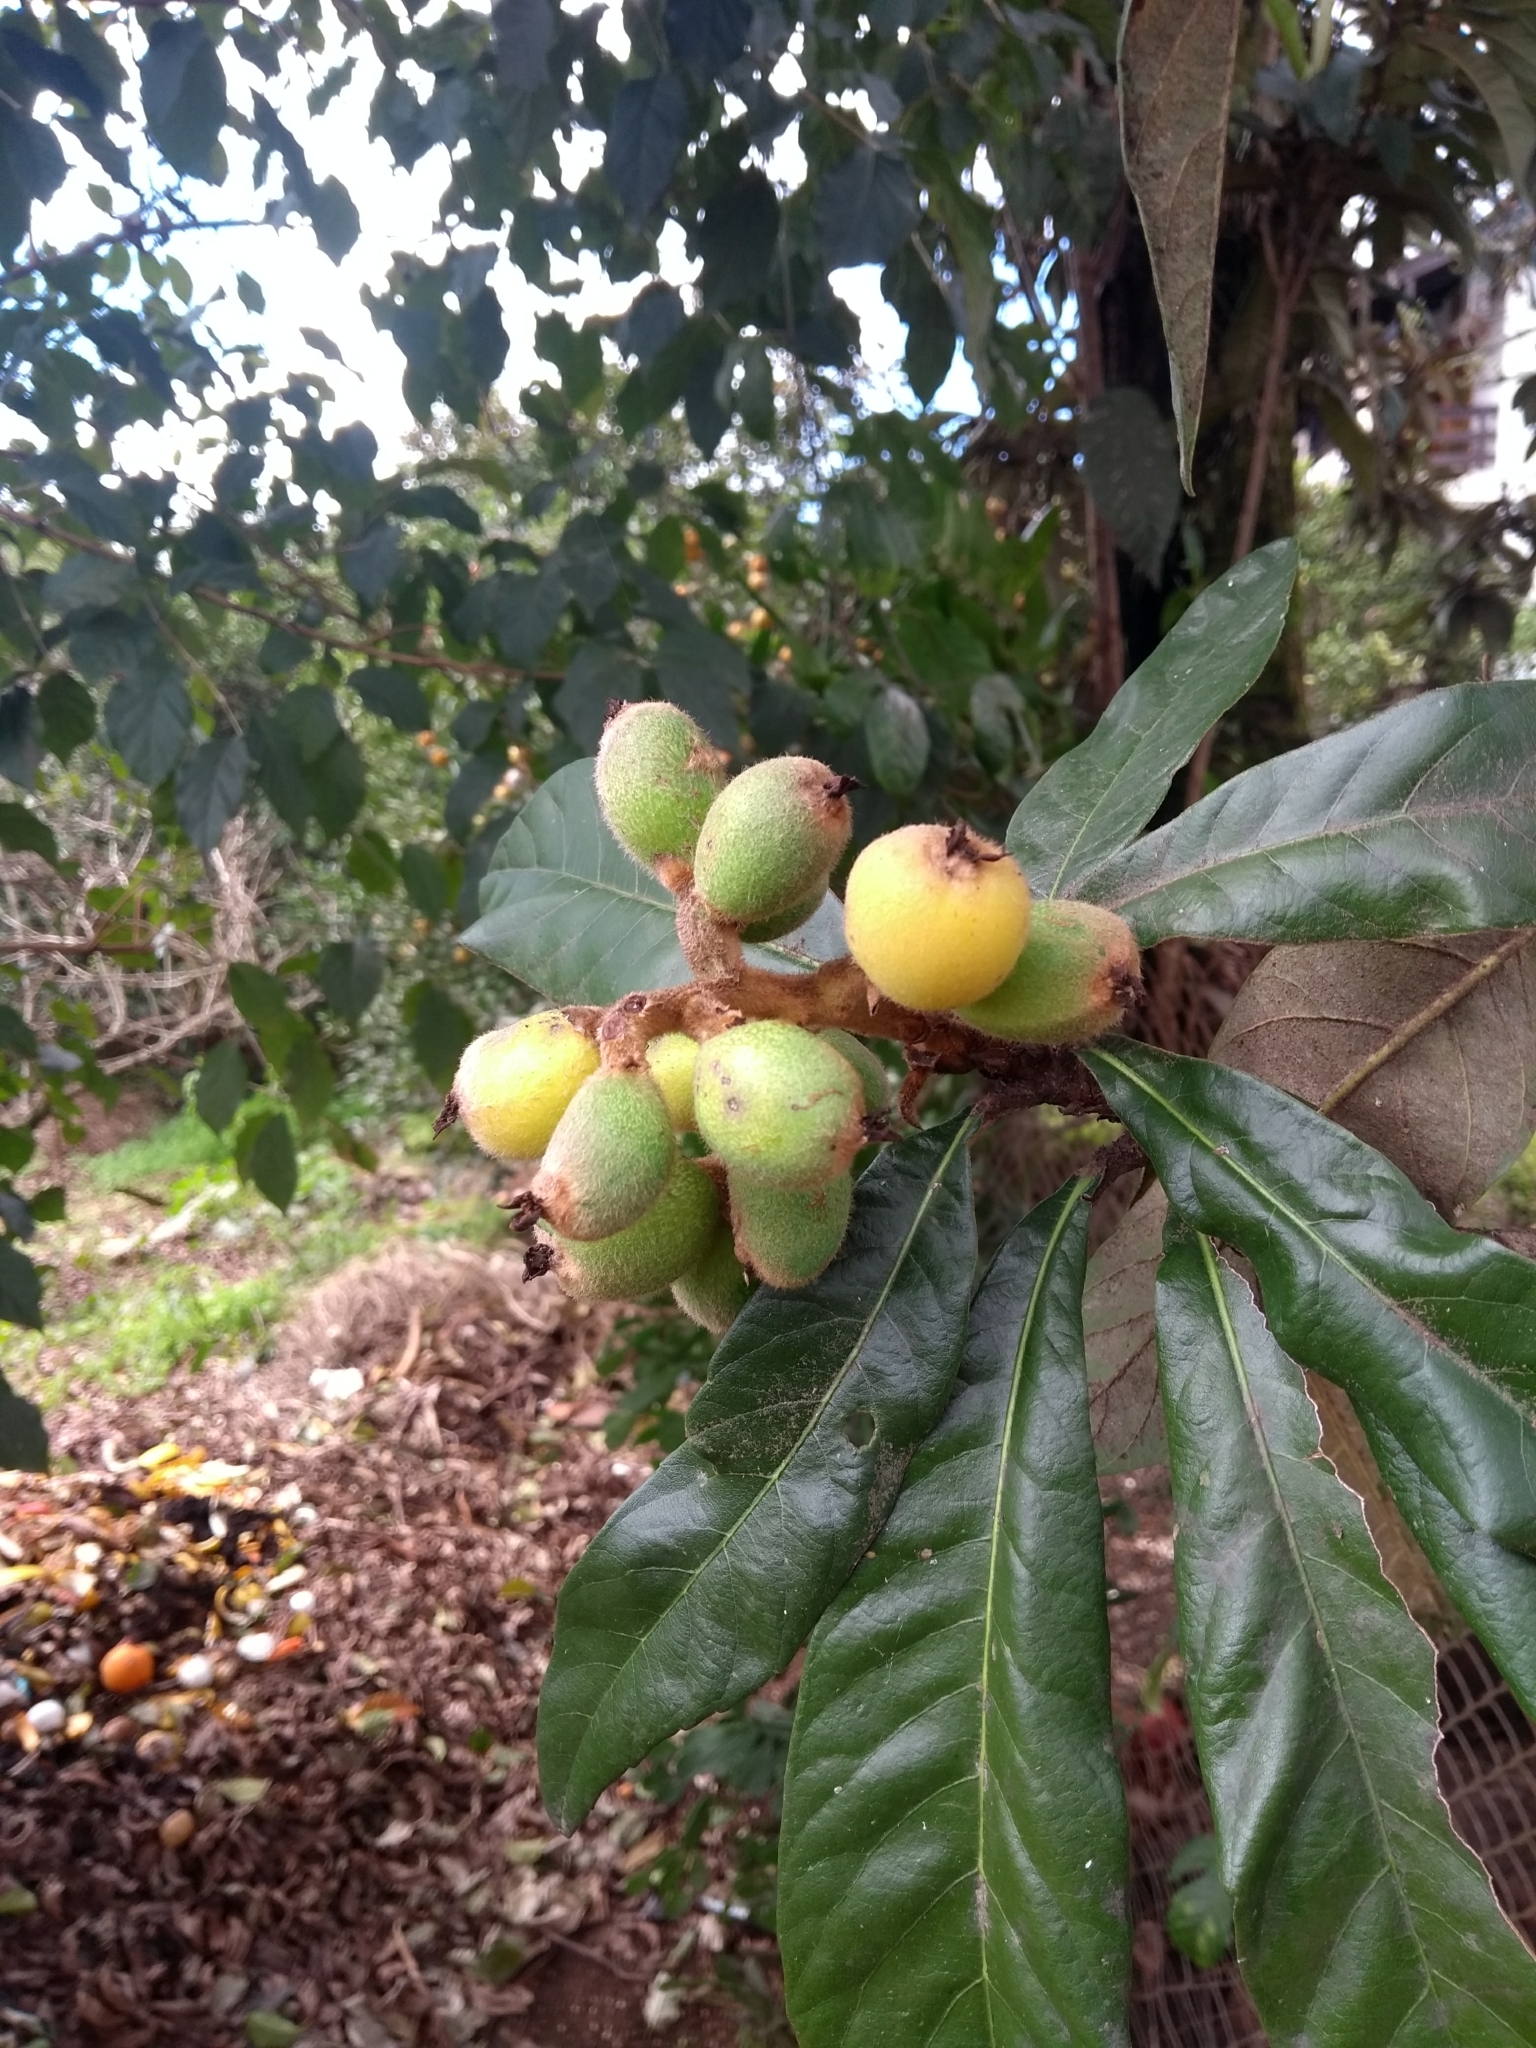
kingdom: Plantae
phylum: Tracheophyta
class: Magnoliopsida
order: Rosales
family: Rosaceae
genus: Rhaphiolepis
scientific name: Rhaphiolepis bibas
